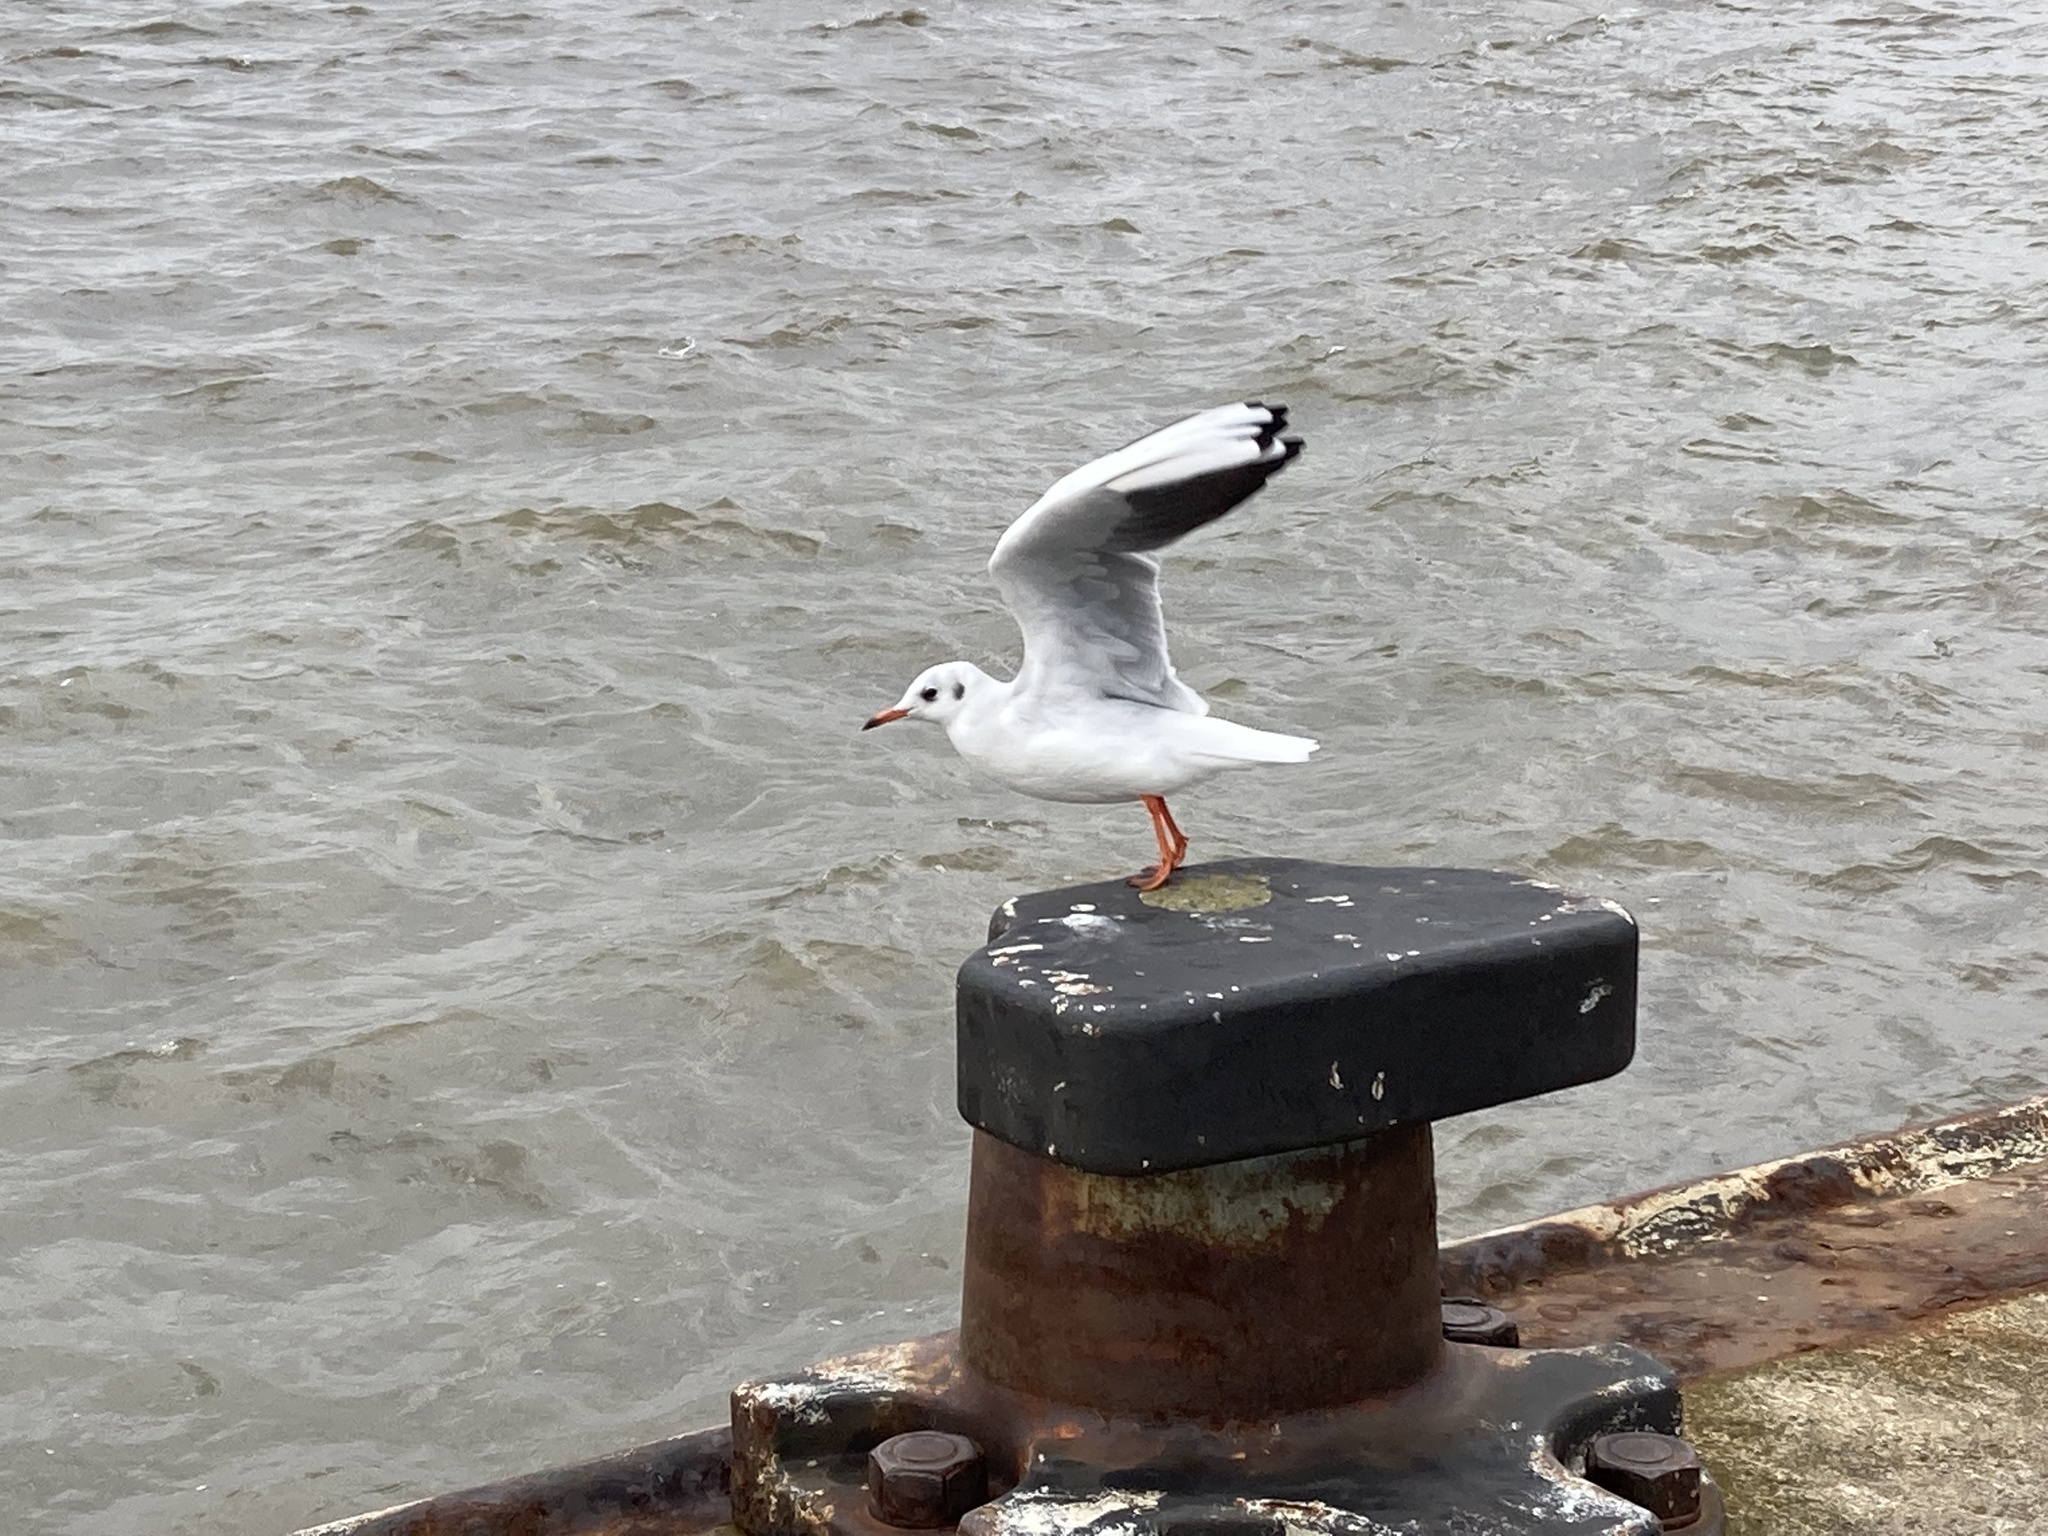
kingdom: Animalia
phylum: Chordata
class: Aves
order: Charadriiformes
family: Laridae
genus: Chroicocephalus
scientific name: Chroicocephalus ridibundus
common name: Black-headed gull
